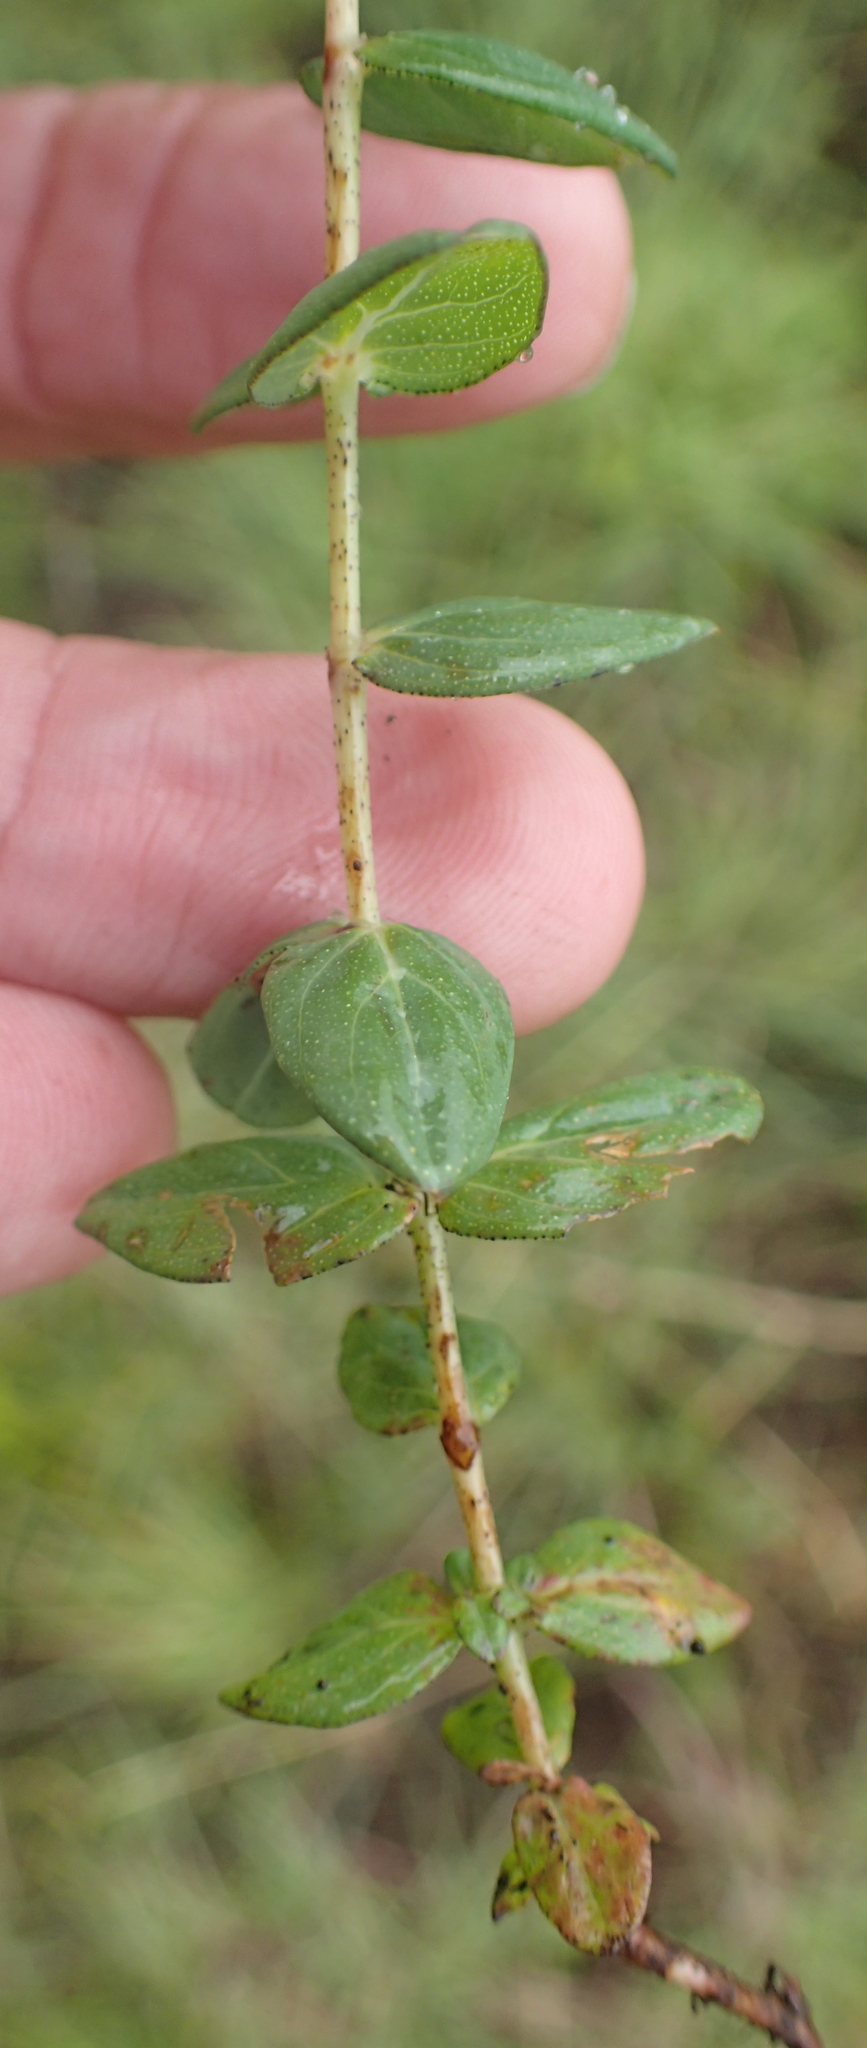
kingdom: Plantae
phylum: Tracheophyta
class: Magnoliopsida
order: Malpighiales
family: Hypericaceae
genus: Hypericum
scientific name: Hypericum aethiopicum
